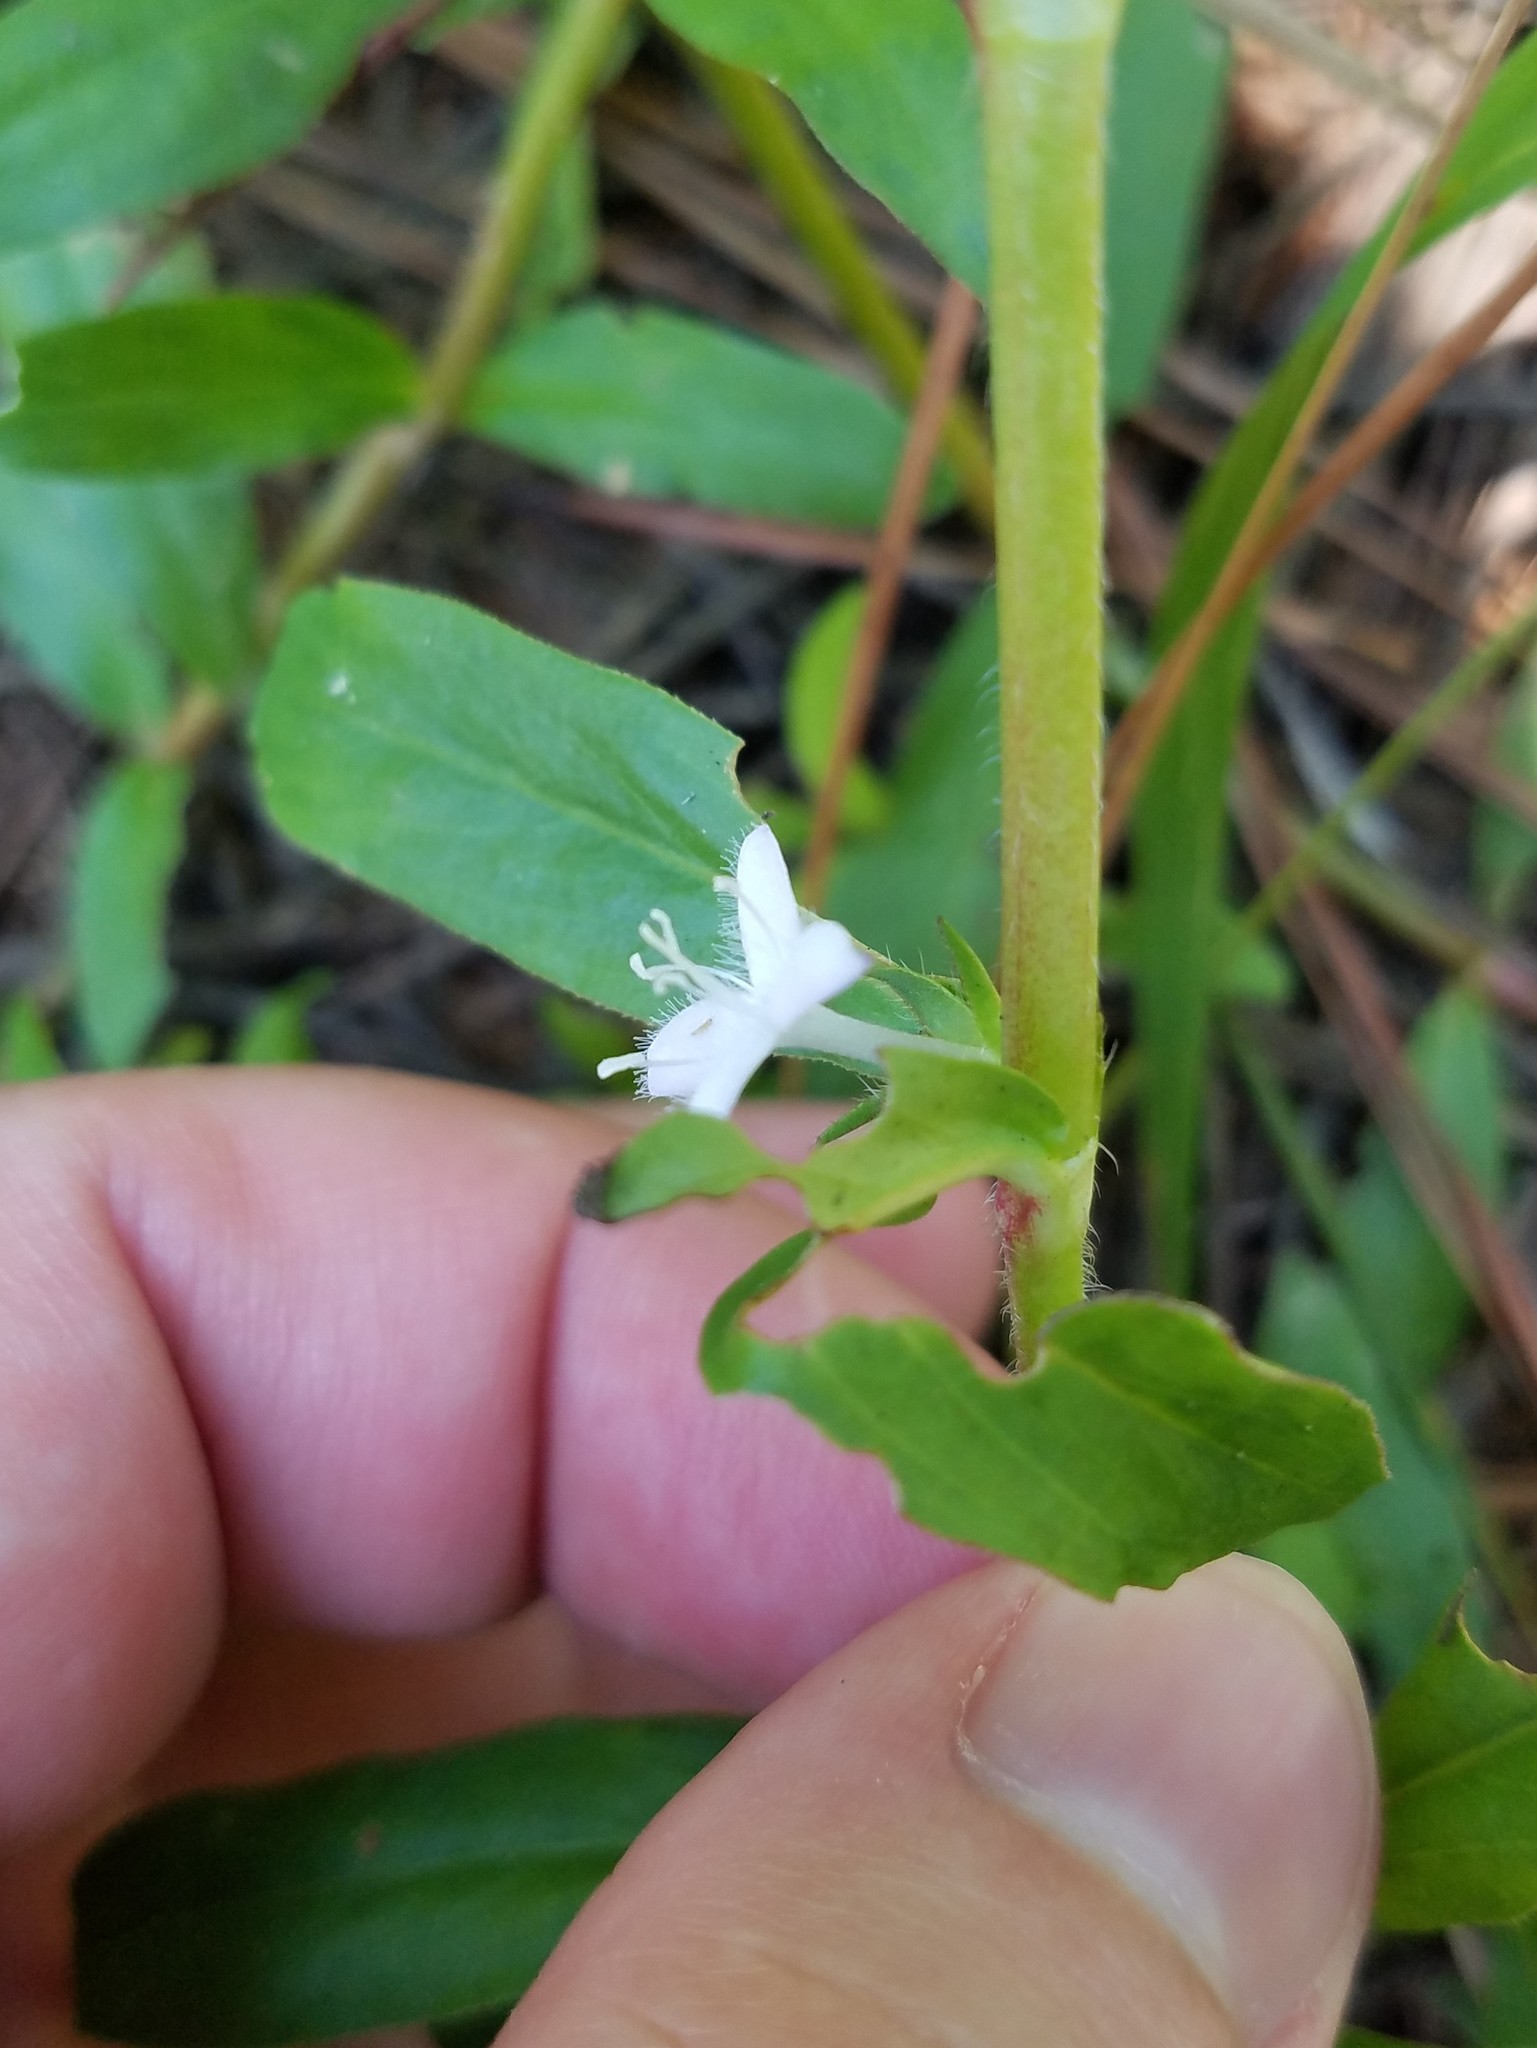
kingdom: Plantae
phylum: Tracheophyta
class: Magnoliopsida
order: Gentianales
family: Rubiaceae
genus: Diodia
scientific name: Diodia virginiana
